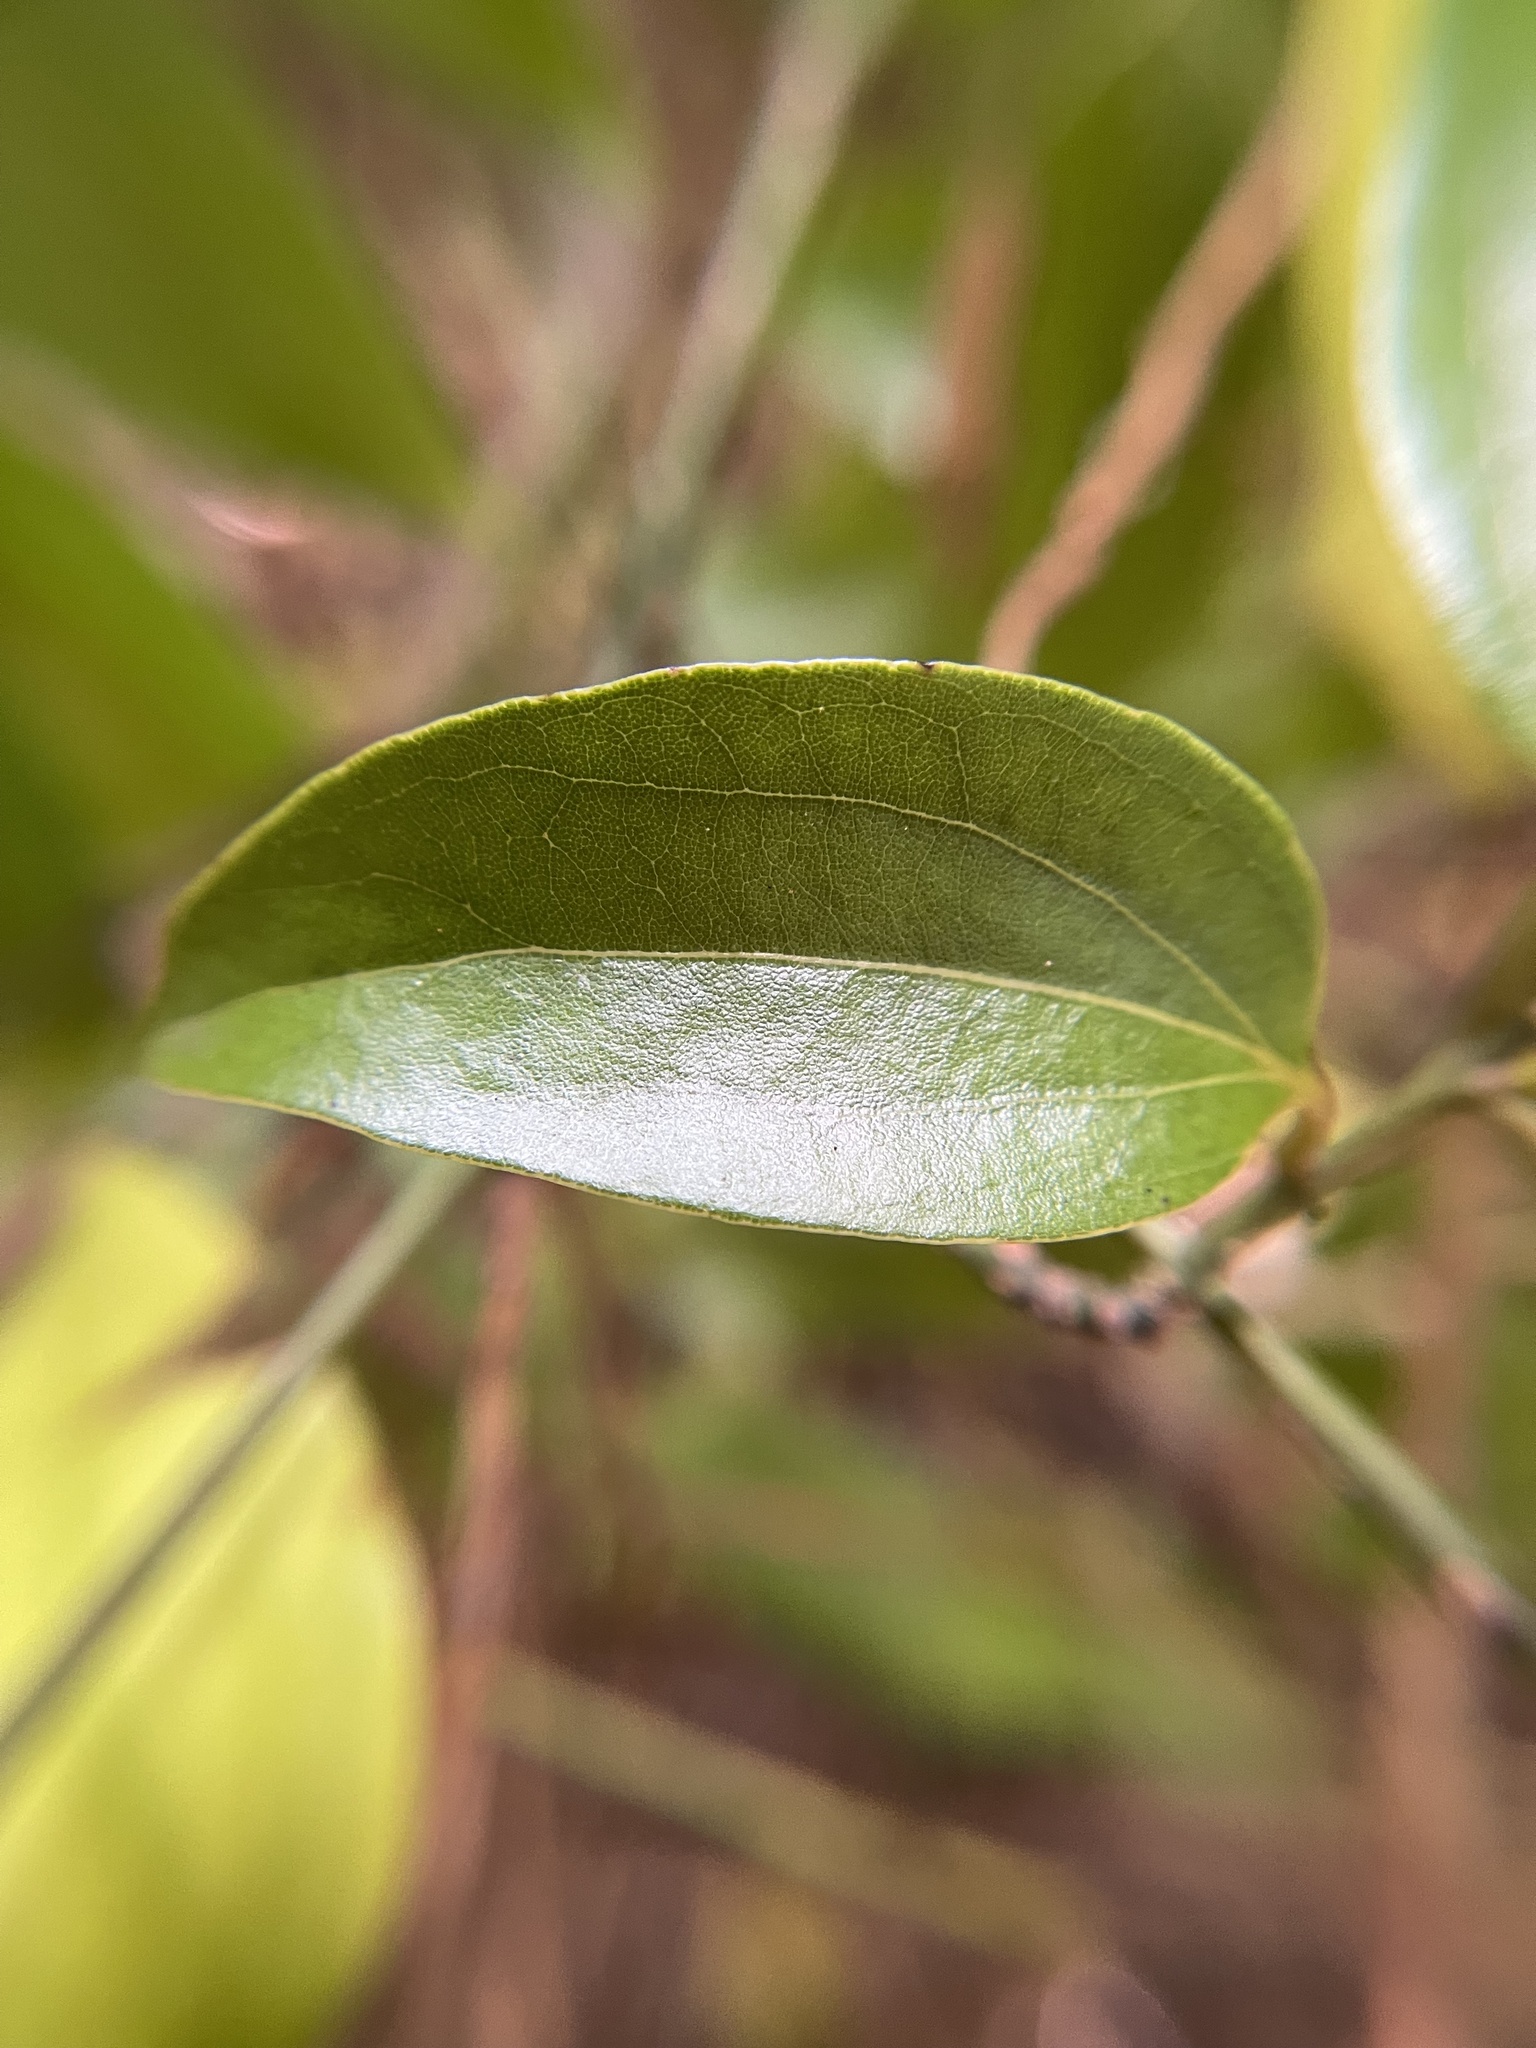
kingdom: Plantae
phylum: Tracheophyta
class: Magnoliopsida
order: Laurales
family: Lauraceae
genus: Cinnamomum
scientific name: Cinnamomum burmanni
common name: Padang cassia
